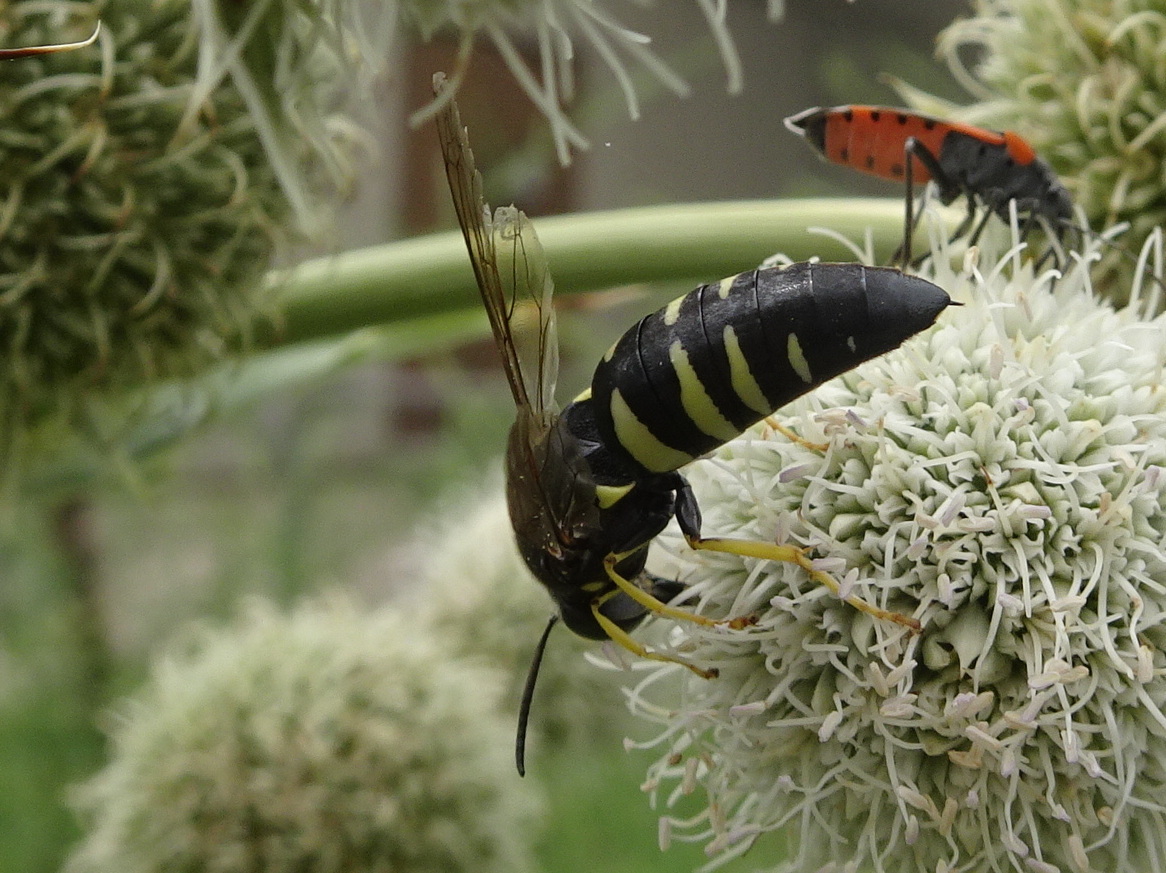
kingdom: Animalia
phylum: Arthropoda
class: Insecta
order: Hymenoptera
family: Crabronidae
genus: Bicyrtes
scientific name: Bicyrtes quadrifasciatus
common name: Four-banded stink bug hunter wasp
